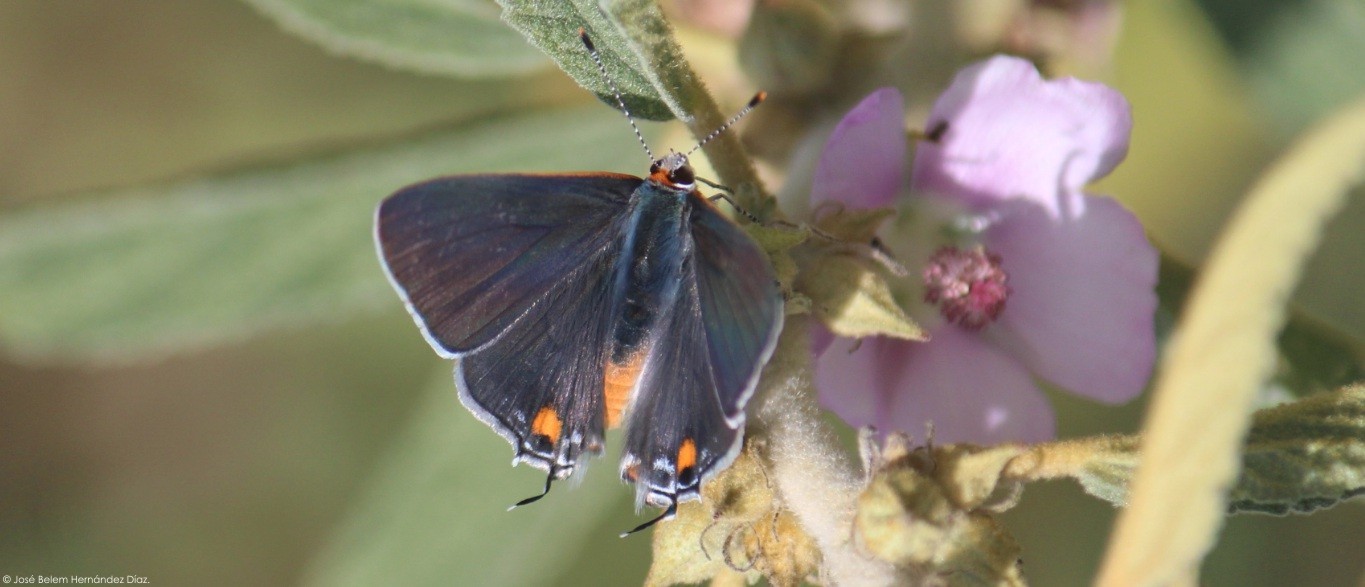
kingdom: Animalia
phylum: Arthropoda
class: Insecta
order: Lepidoptera
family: Lycaenidae
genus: Strymon
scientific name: Strymon melinus
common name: Gray hairstreak
